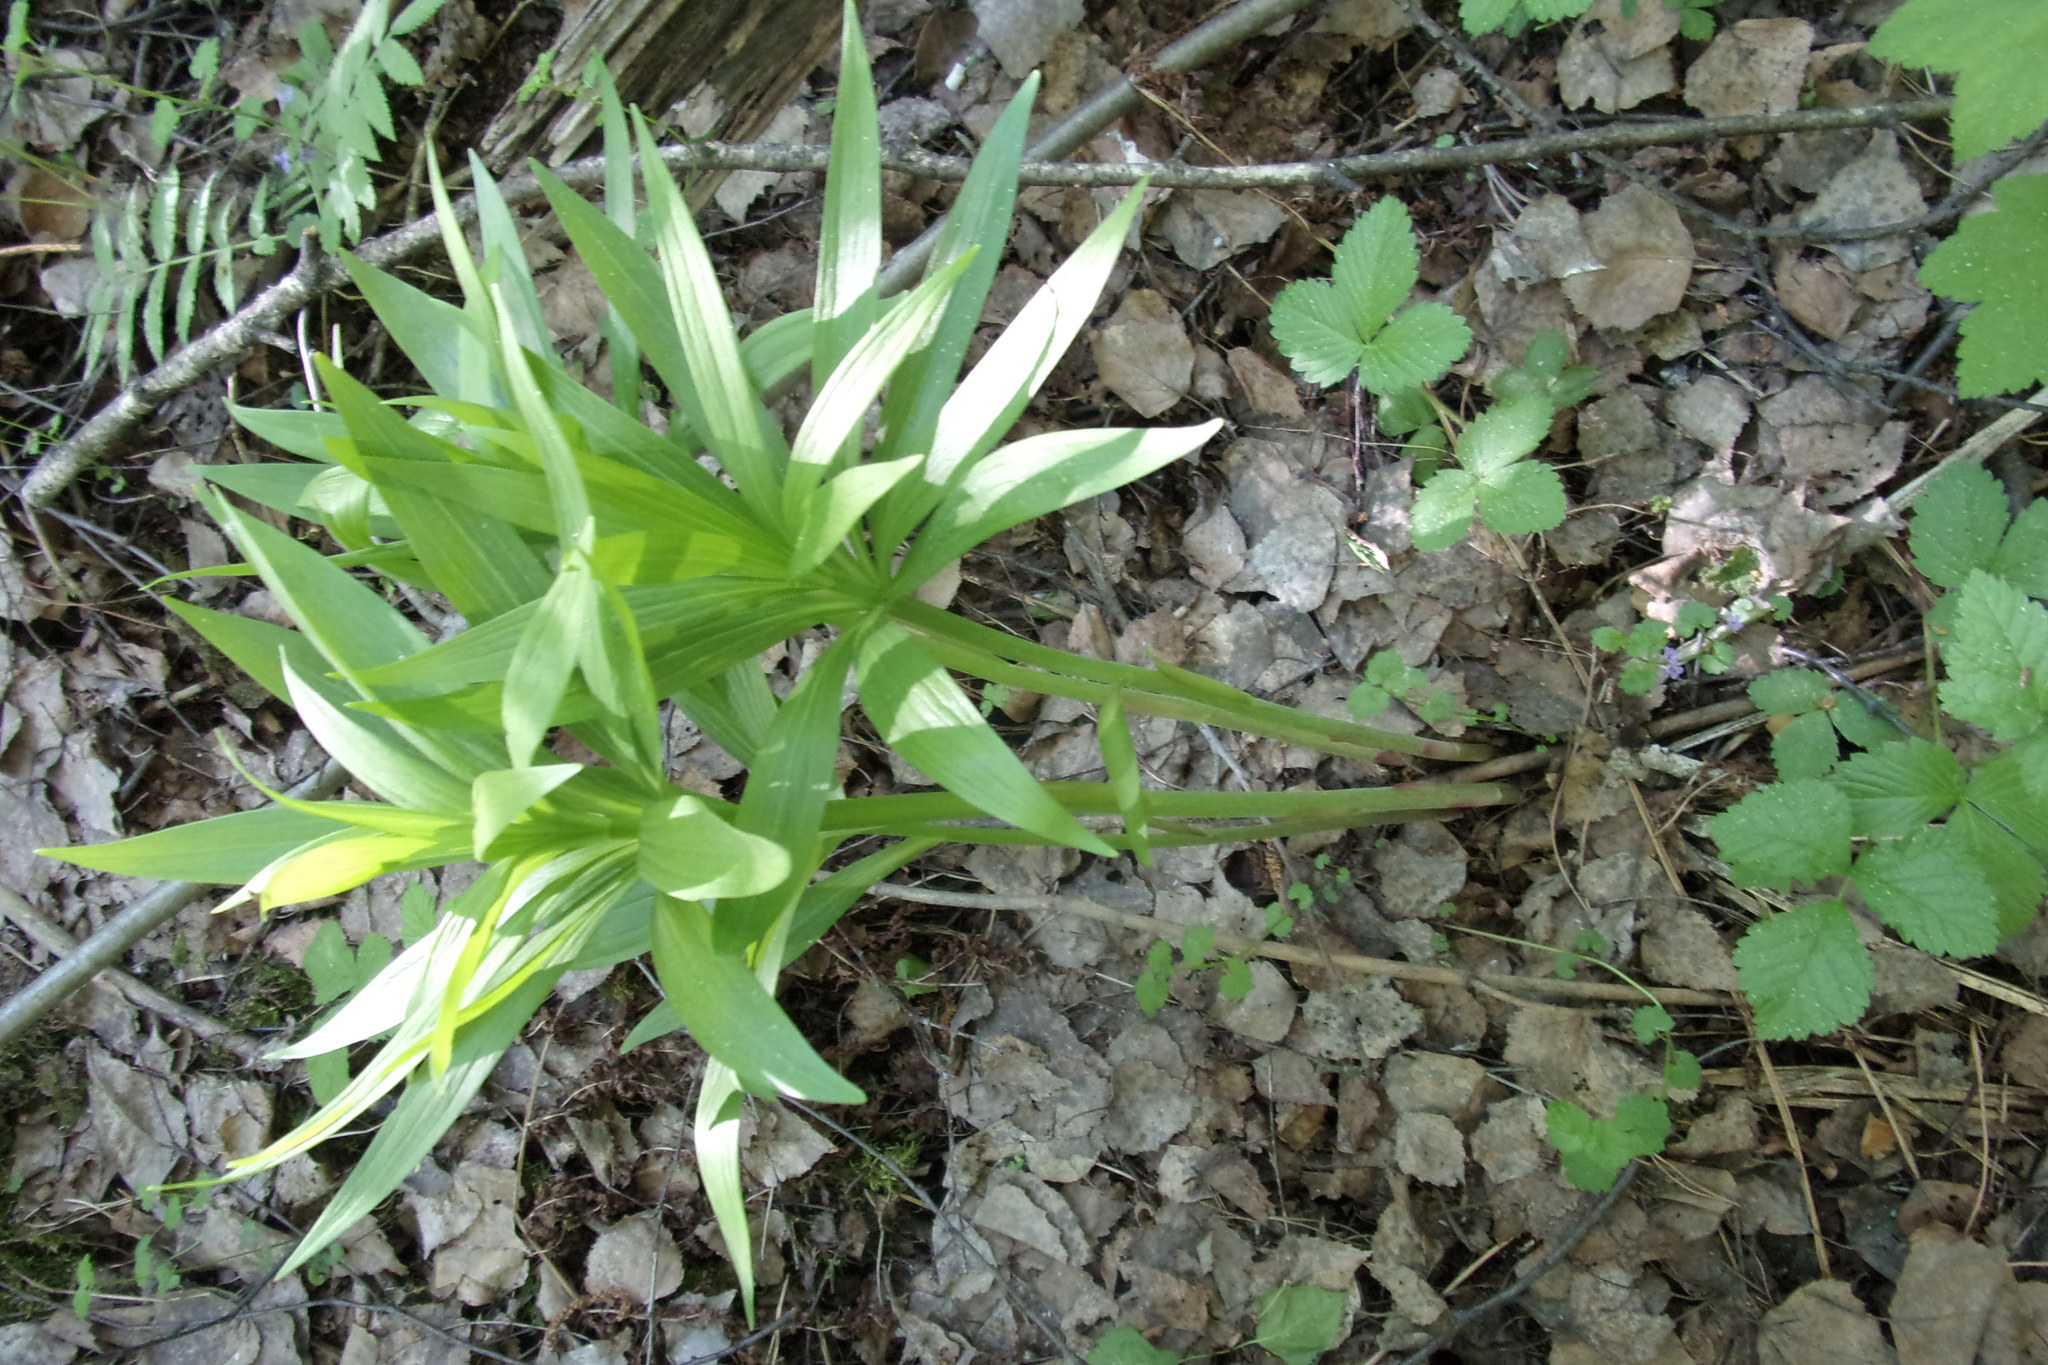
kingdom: Plantae
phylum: Tracheophyta
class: Liliopsida
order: Liliales
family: Liliaceae
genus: Lilium
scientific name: Lilium martagon
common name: Martagon lily
